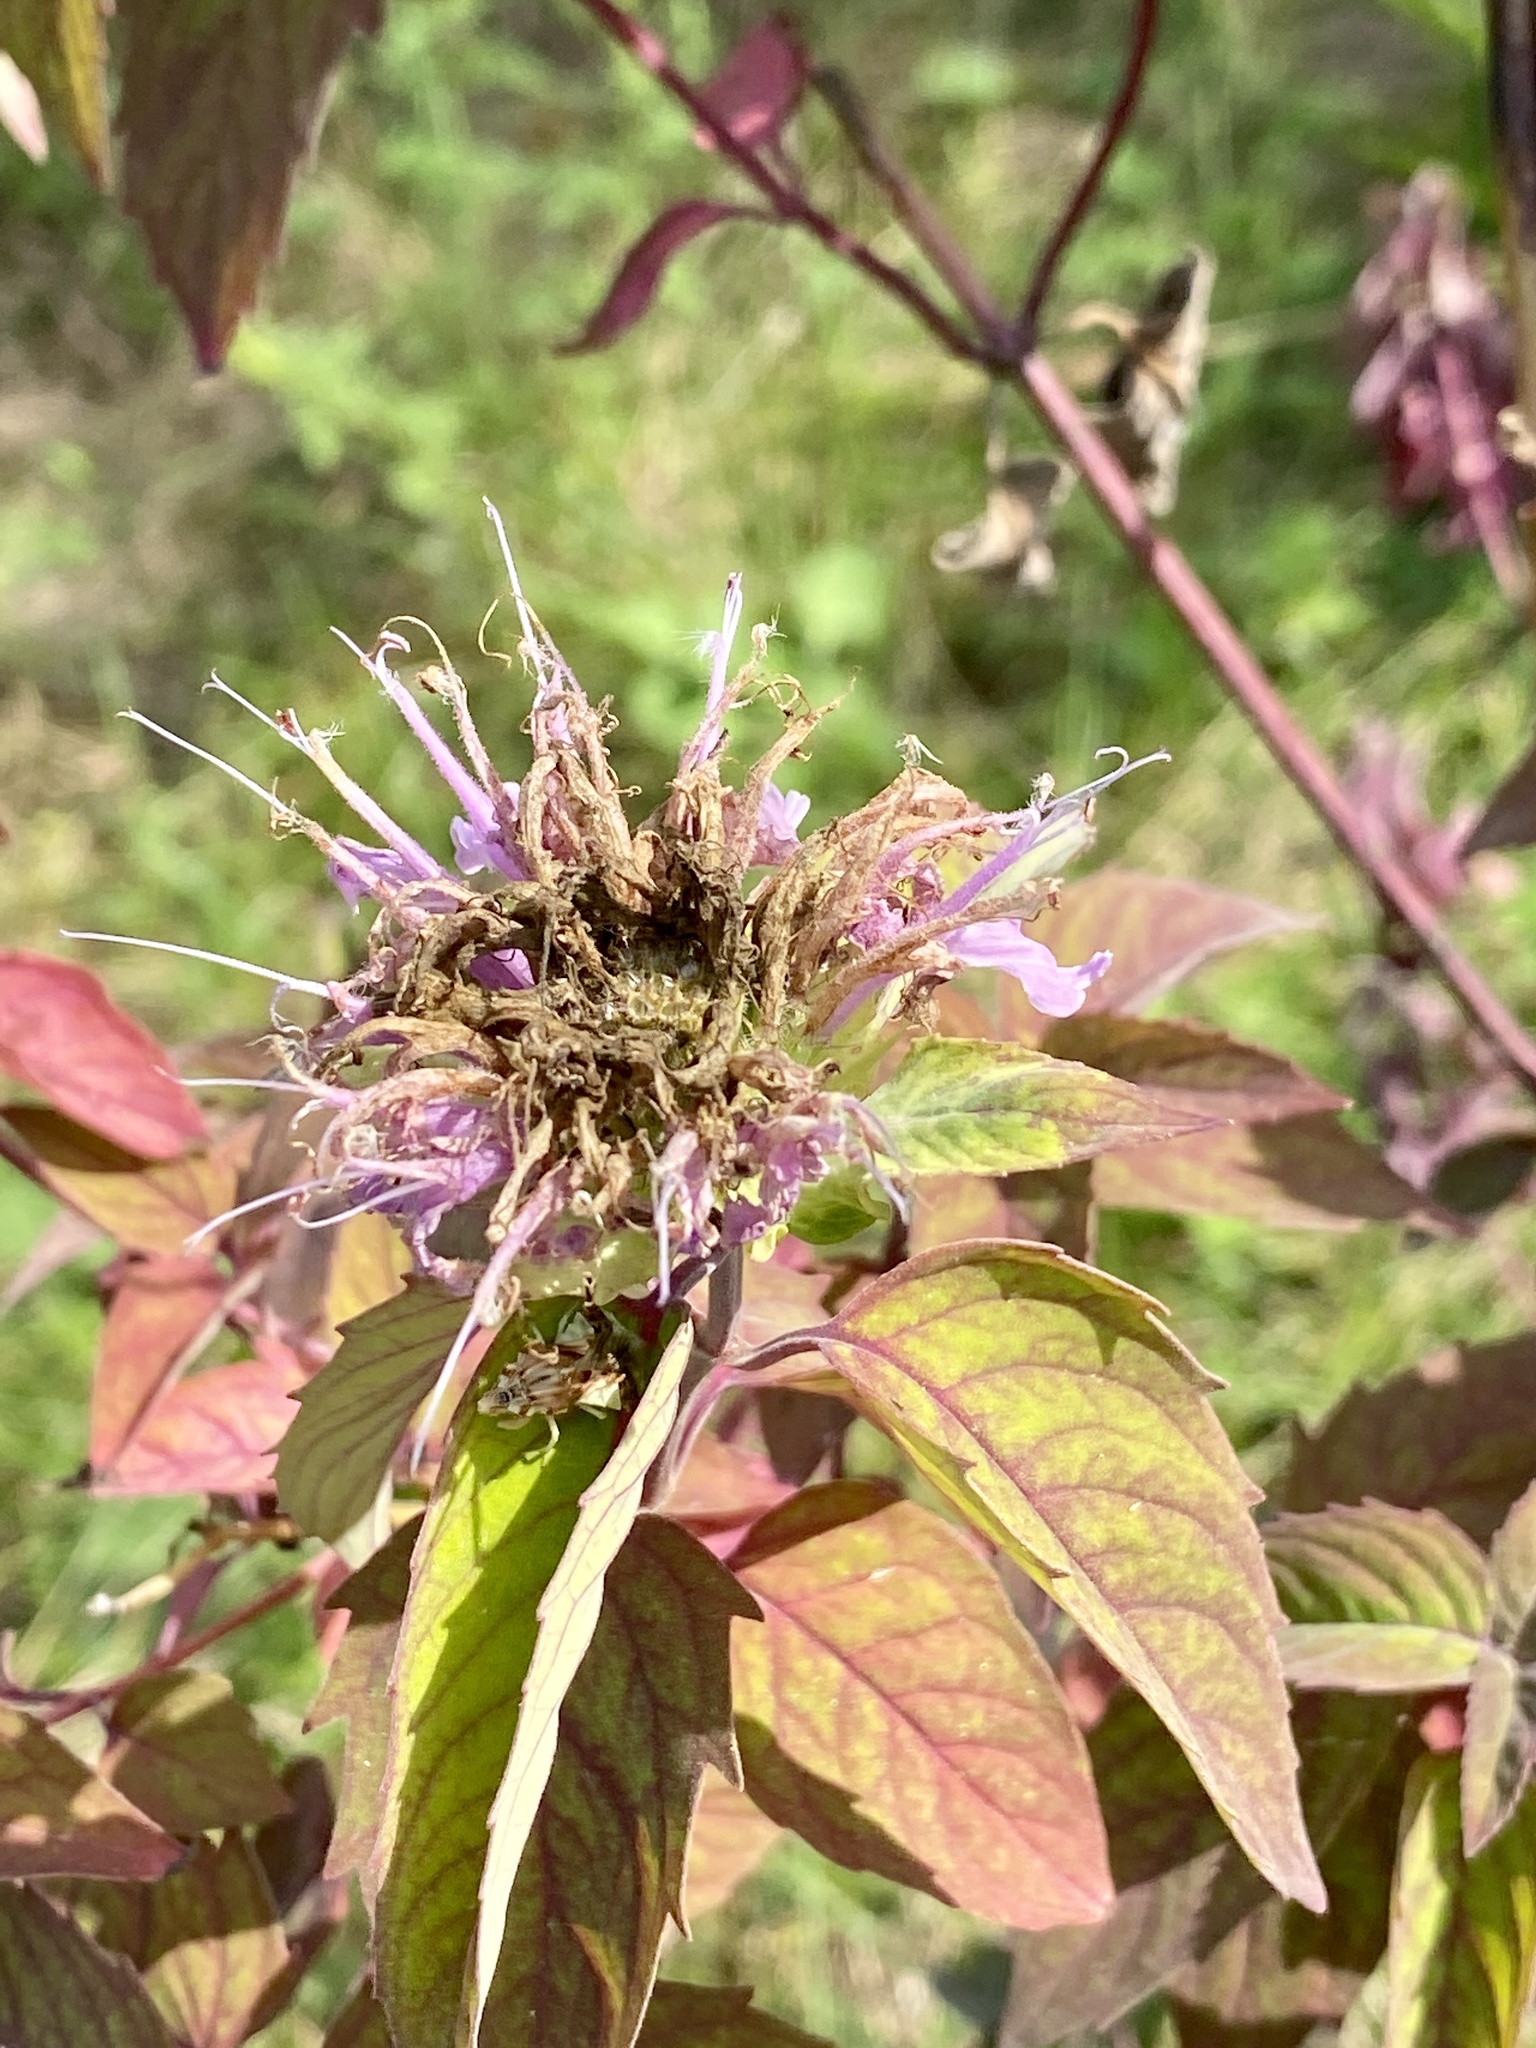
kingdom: Plantae
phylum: Tracheophyta
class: Magnoliopsida
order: Lamiales
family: Lamiaceae
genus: Monarda
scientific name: Monarda fistulosa
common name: Purple beebalm
